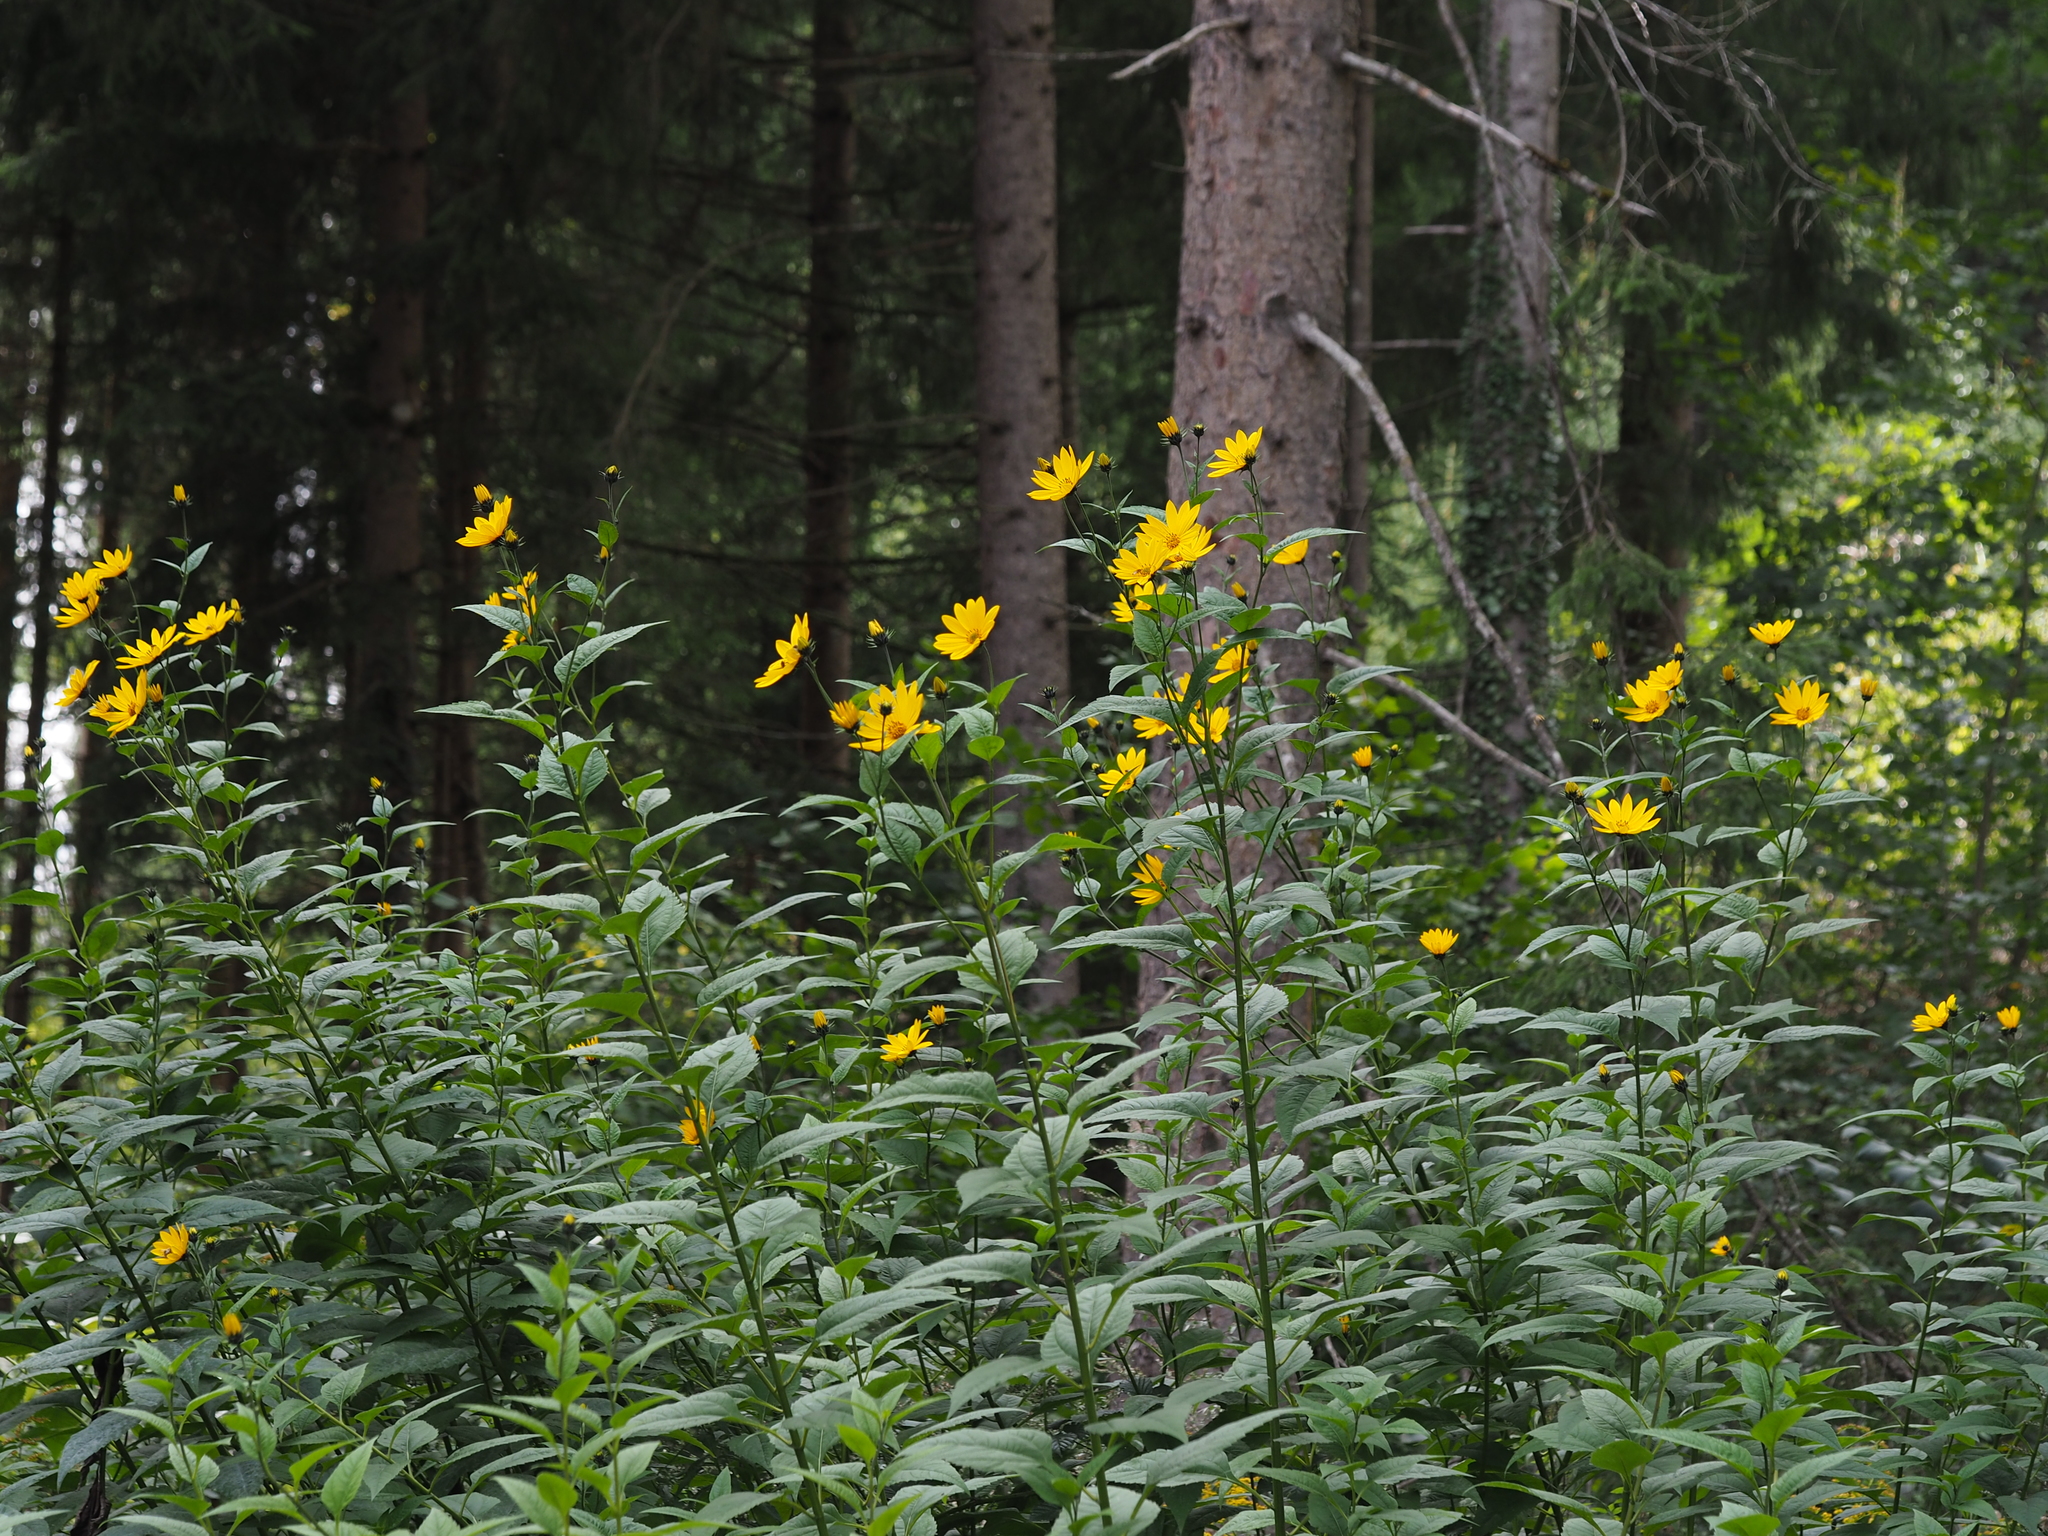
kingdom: Plantae
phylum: Tracheophyta
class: Magnoliopsida
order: Asterales
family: Asteraceae
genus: Helianthus
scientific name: Helianthus tuberosus
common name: Jerusalem artichoke
